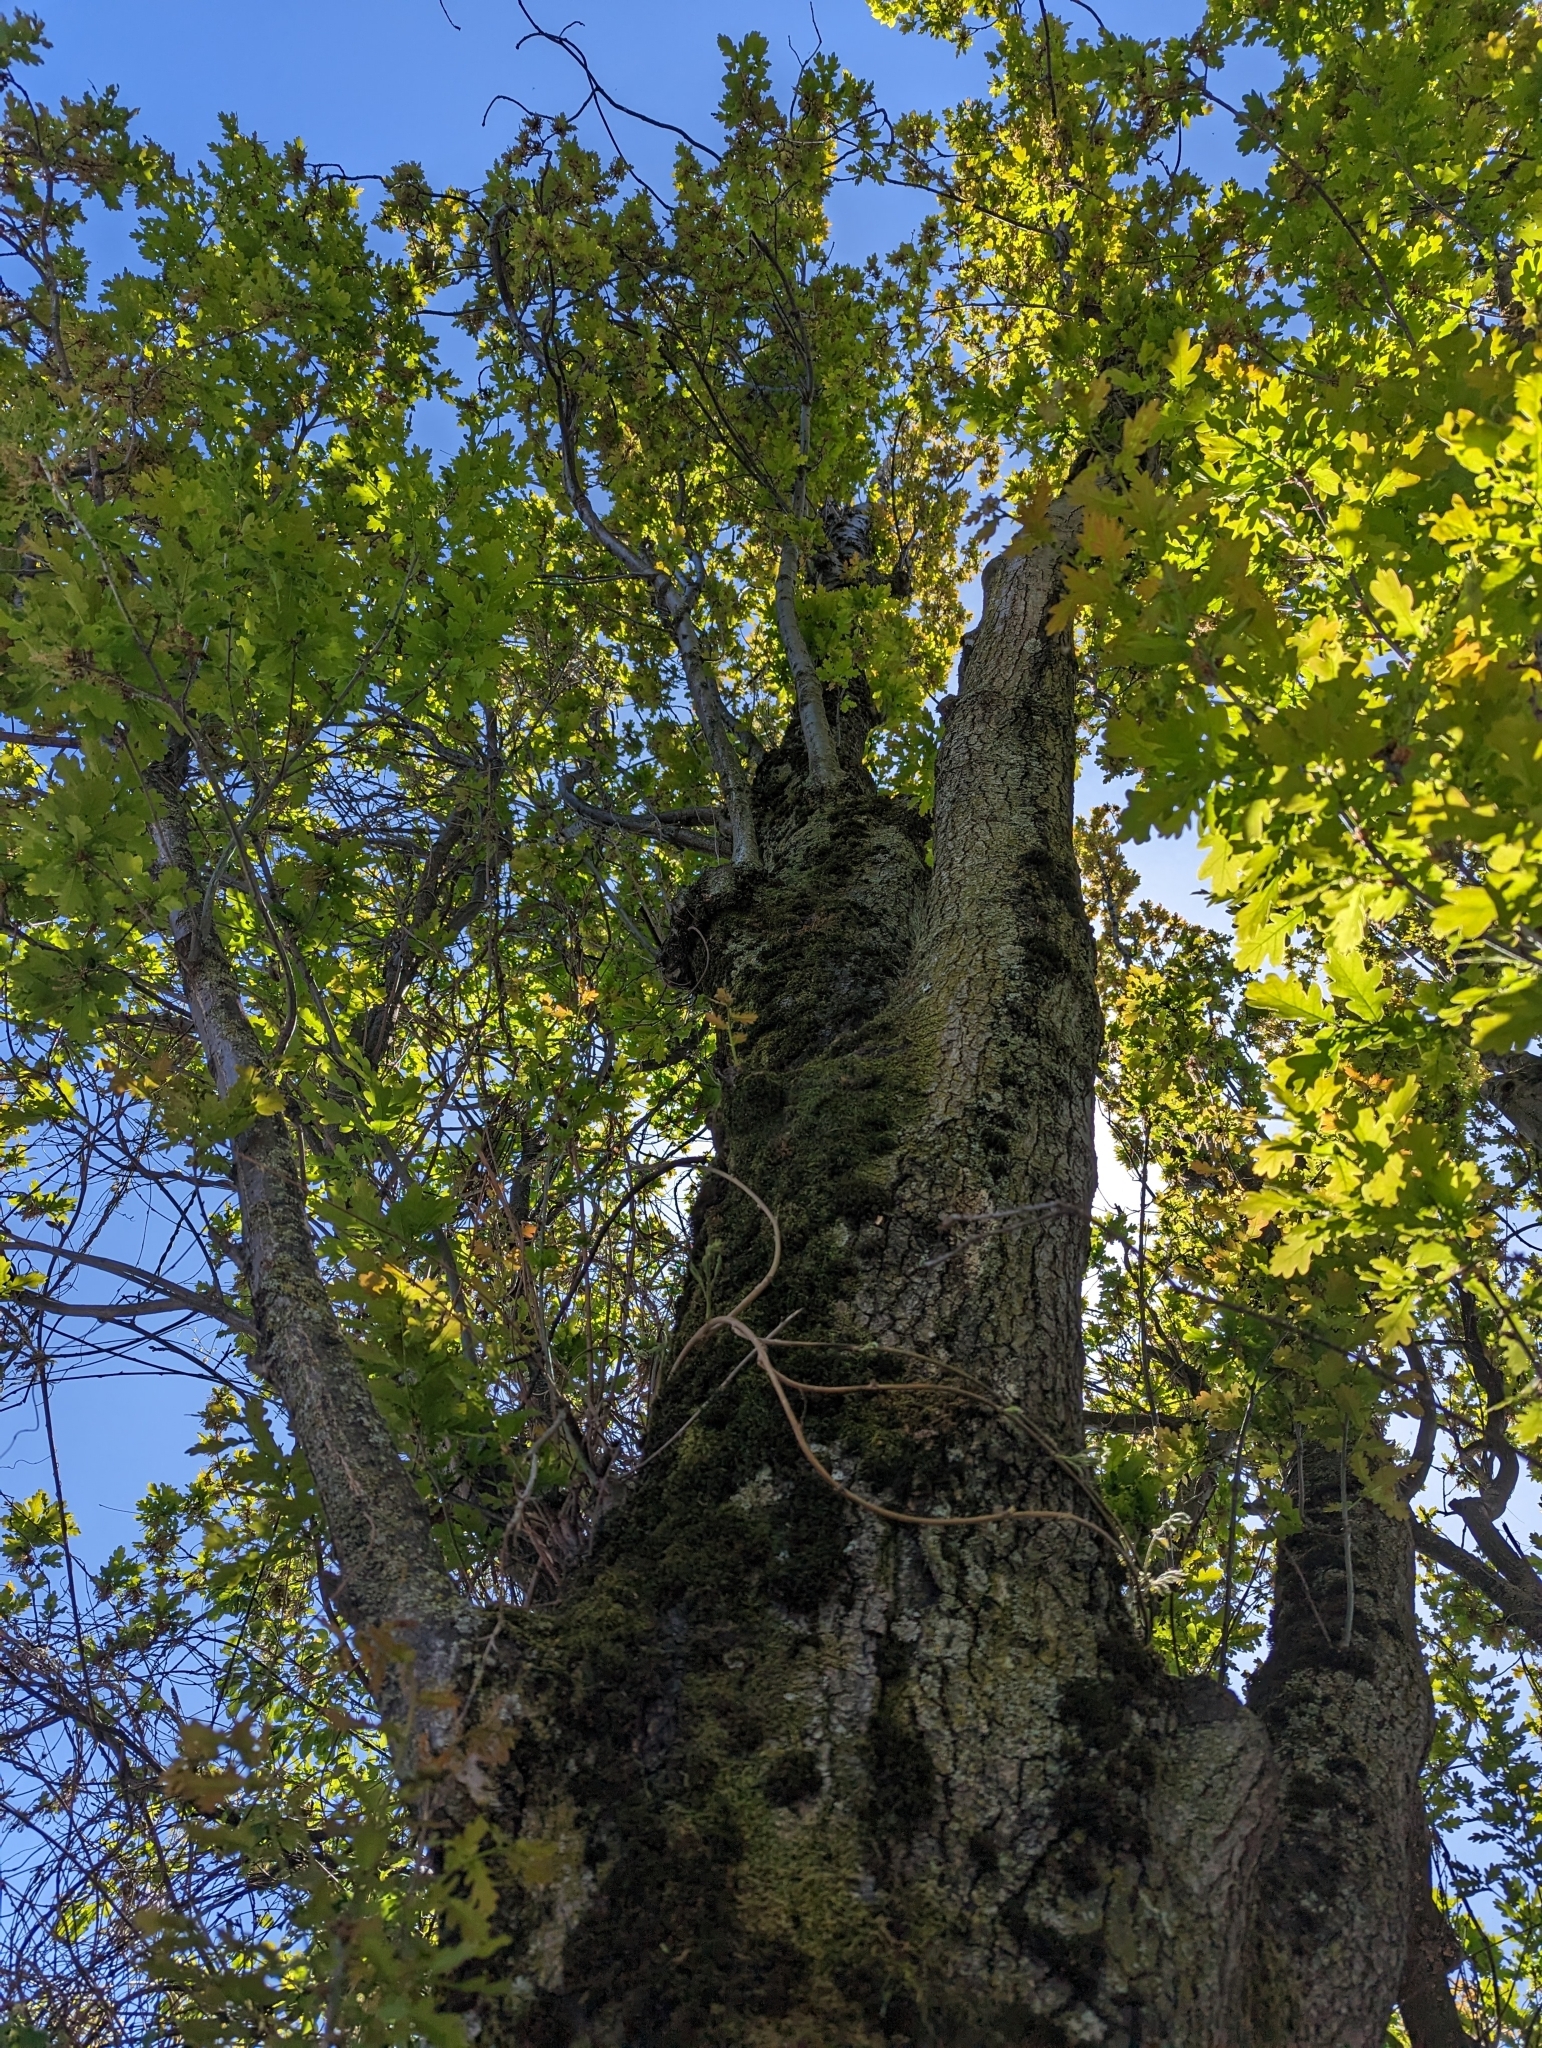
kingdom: Plantae
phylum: Tracheophyta
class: Magnoliopsida
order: Fagales
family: Fagaceae
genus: Quercus
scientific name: Quercus garryana
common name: Garry oak
